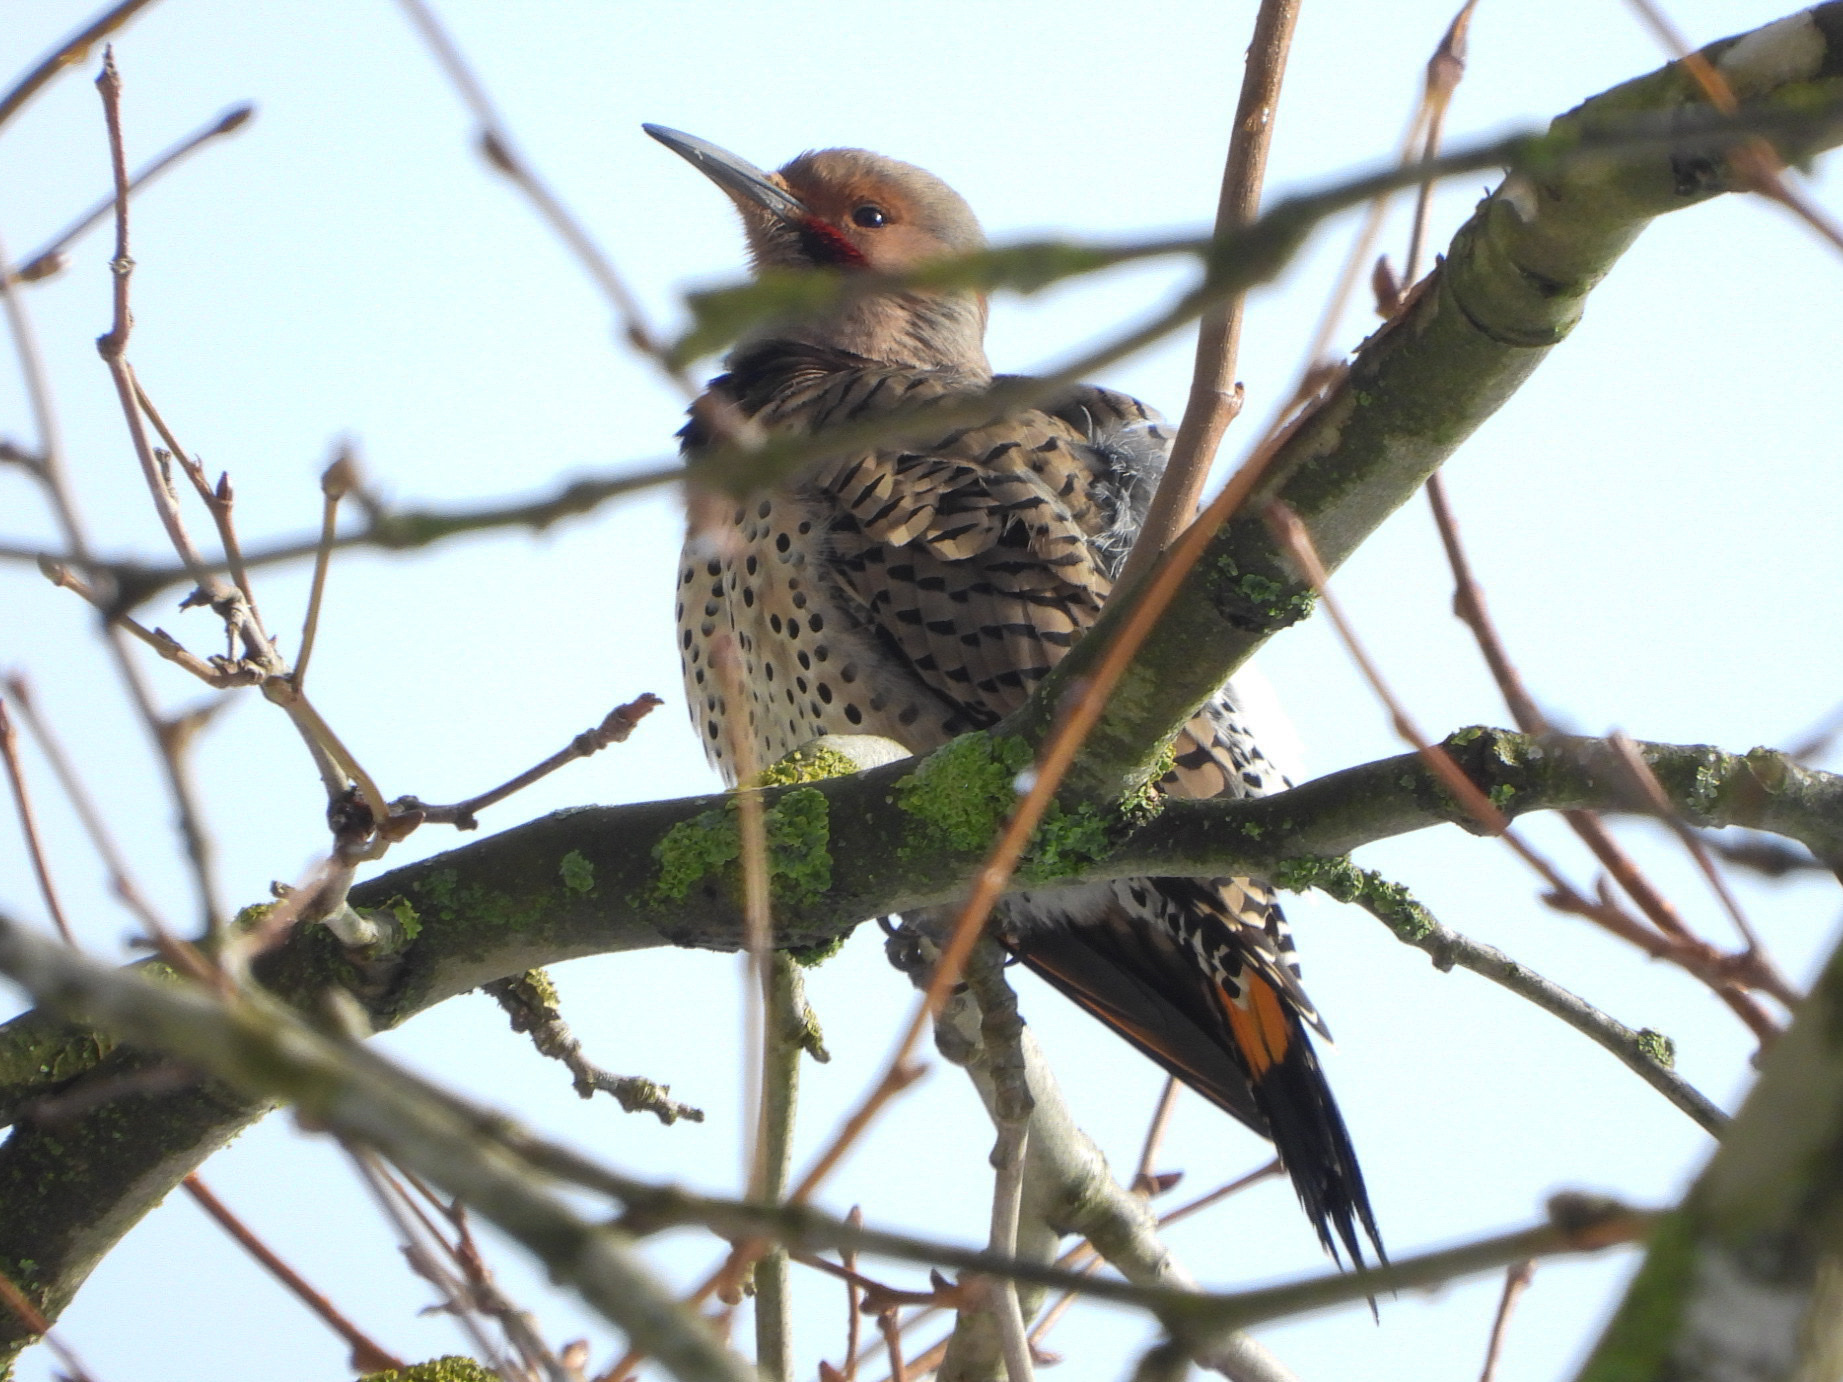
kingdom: Animalia
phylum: Chordata
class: Aves
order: Piciformes
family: Picidae
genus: Colaptes
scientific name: Colaptes
